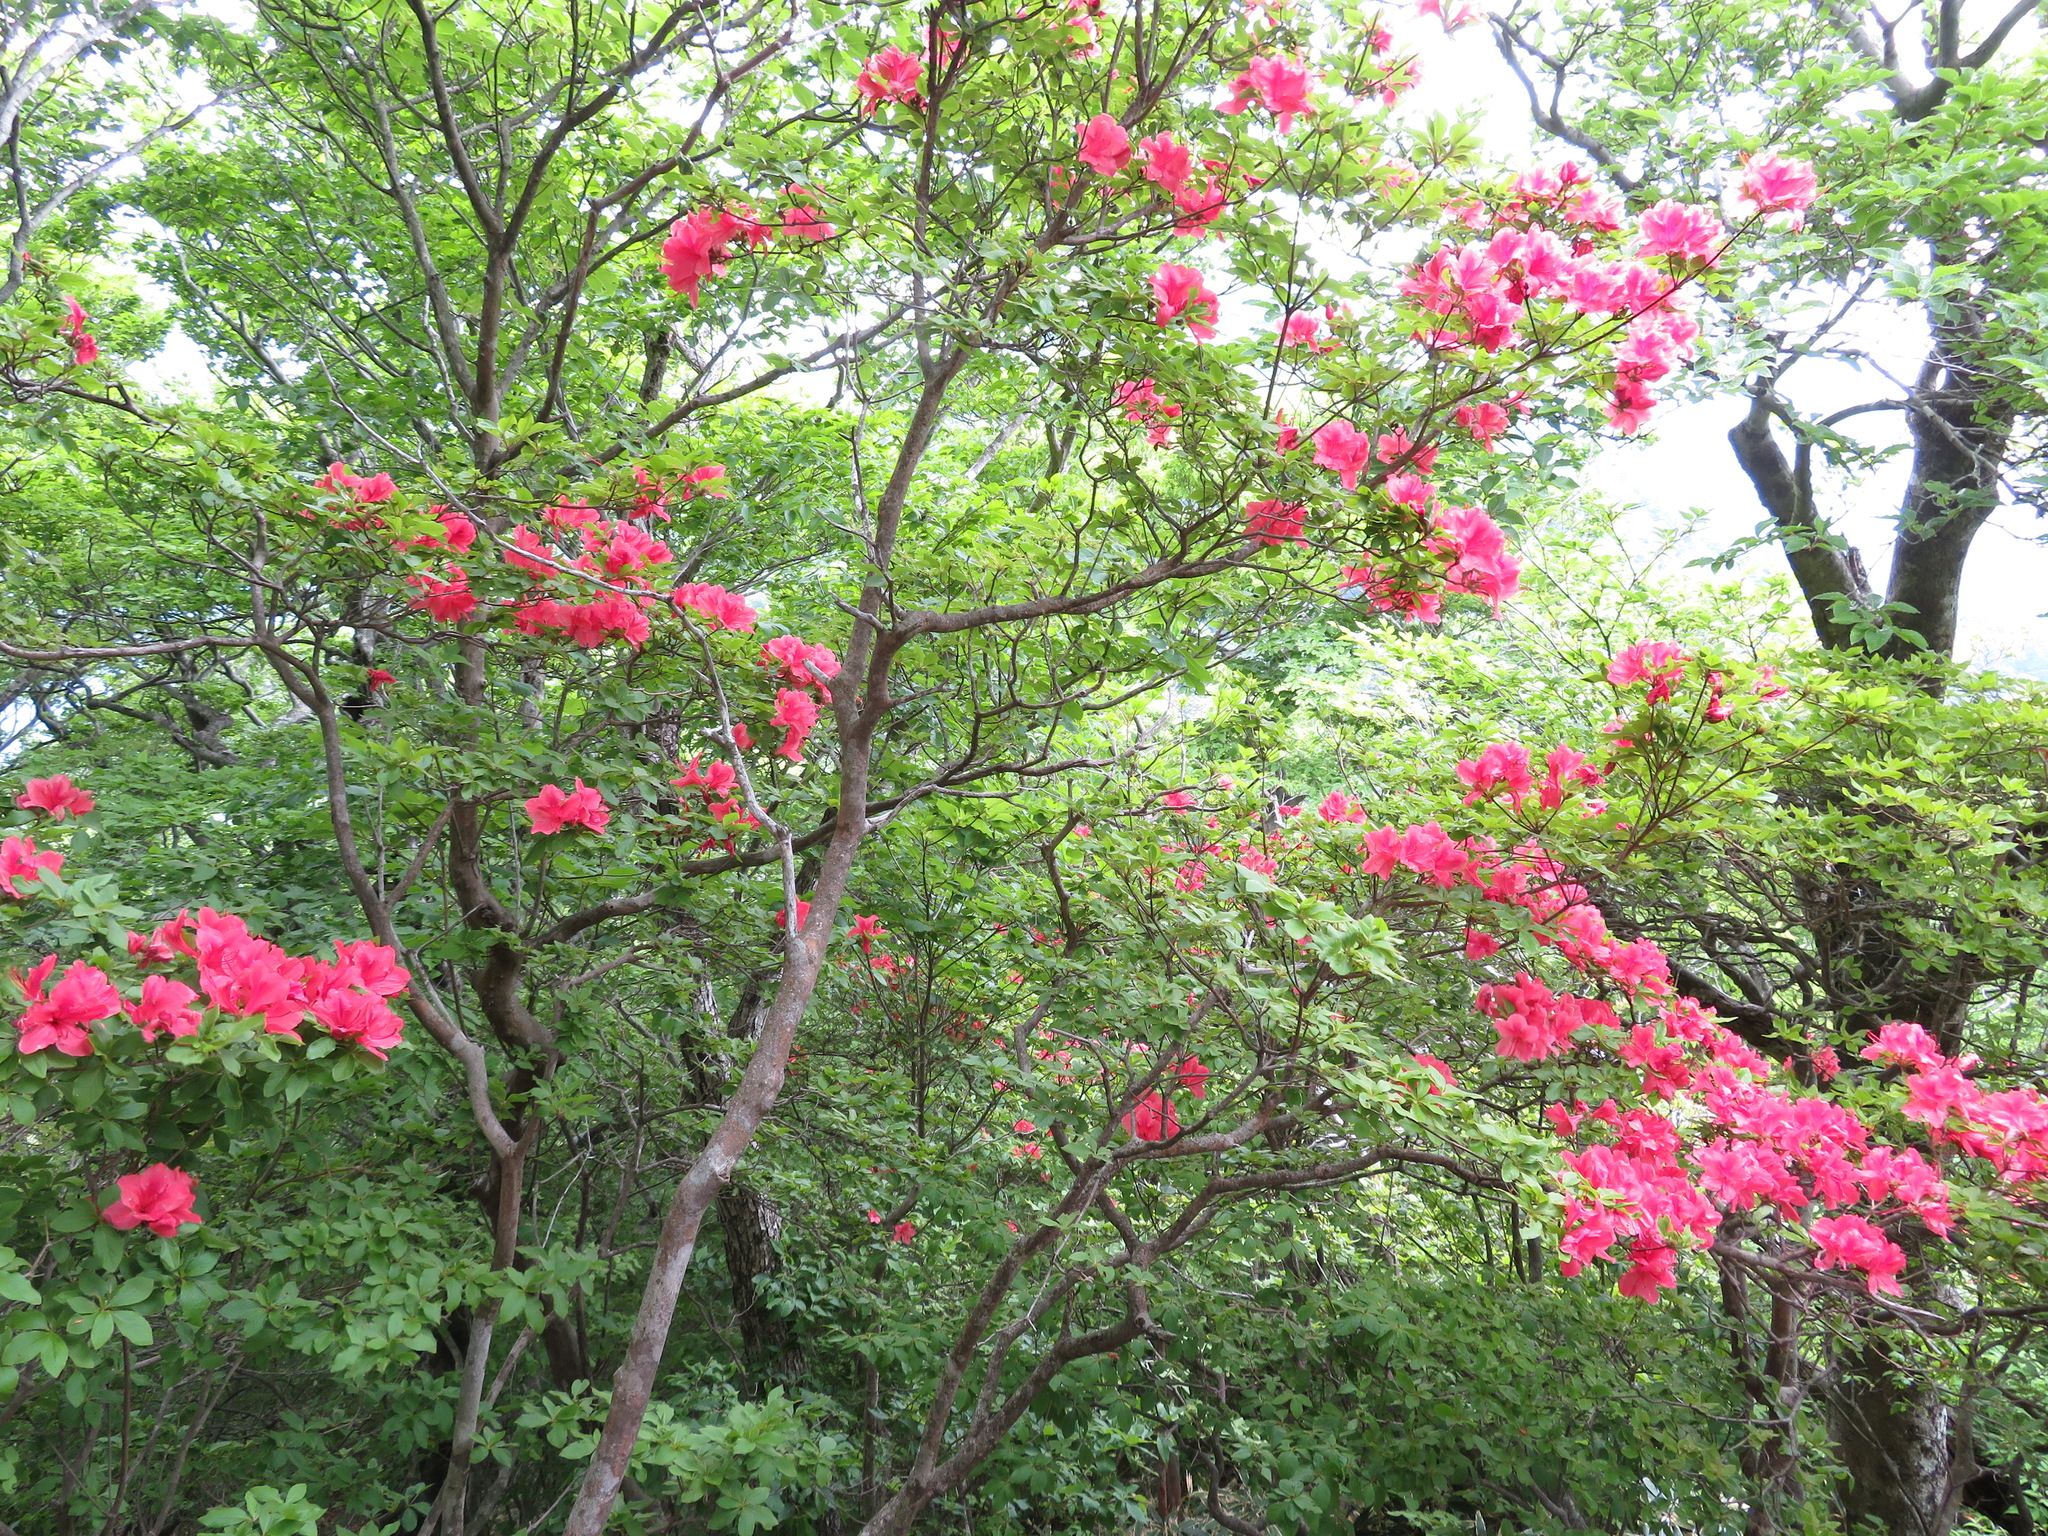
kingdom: Plantae
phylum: Tracheophyta
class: Magnoliopsida
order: Ericales
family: Ericaceae
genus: Rhododendron
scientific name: Rhododendron kaempferi
